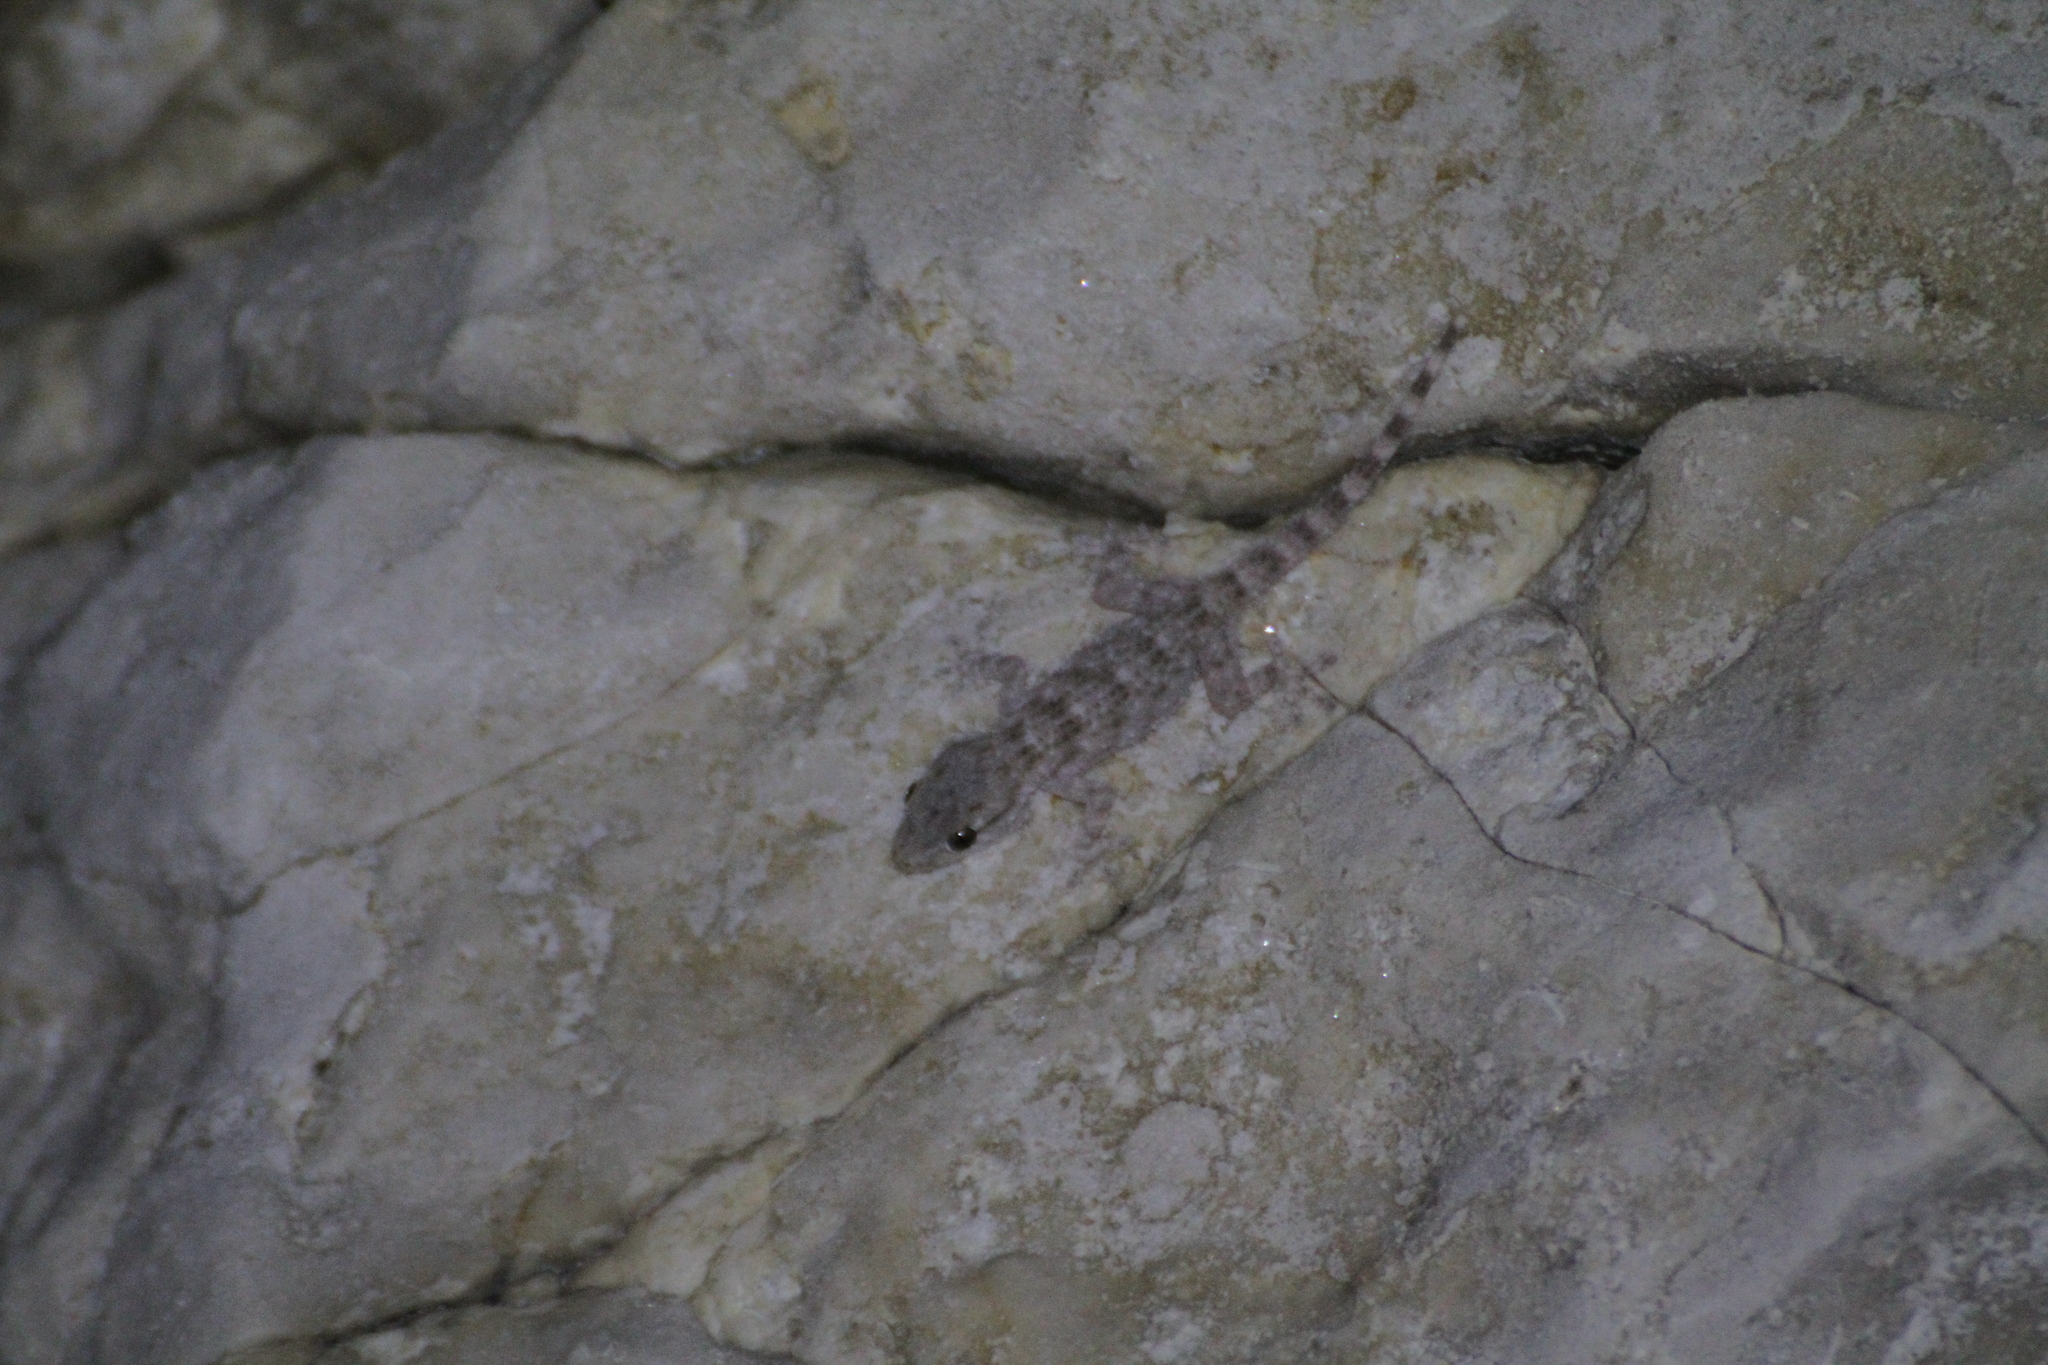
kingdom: Animalia
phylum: Chordata
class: Squamata
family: Phyllodactylidae
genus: Tarentola
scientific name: Tarentola mauritanica
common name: Moorish gecko
